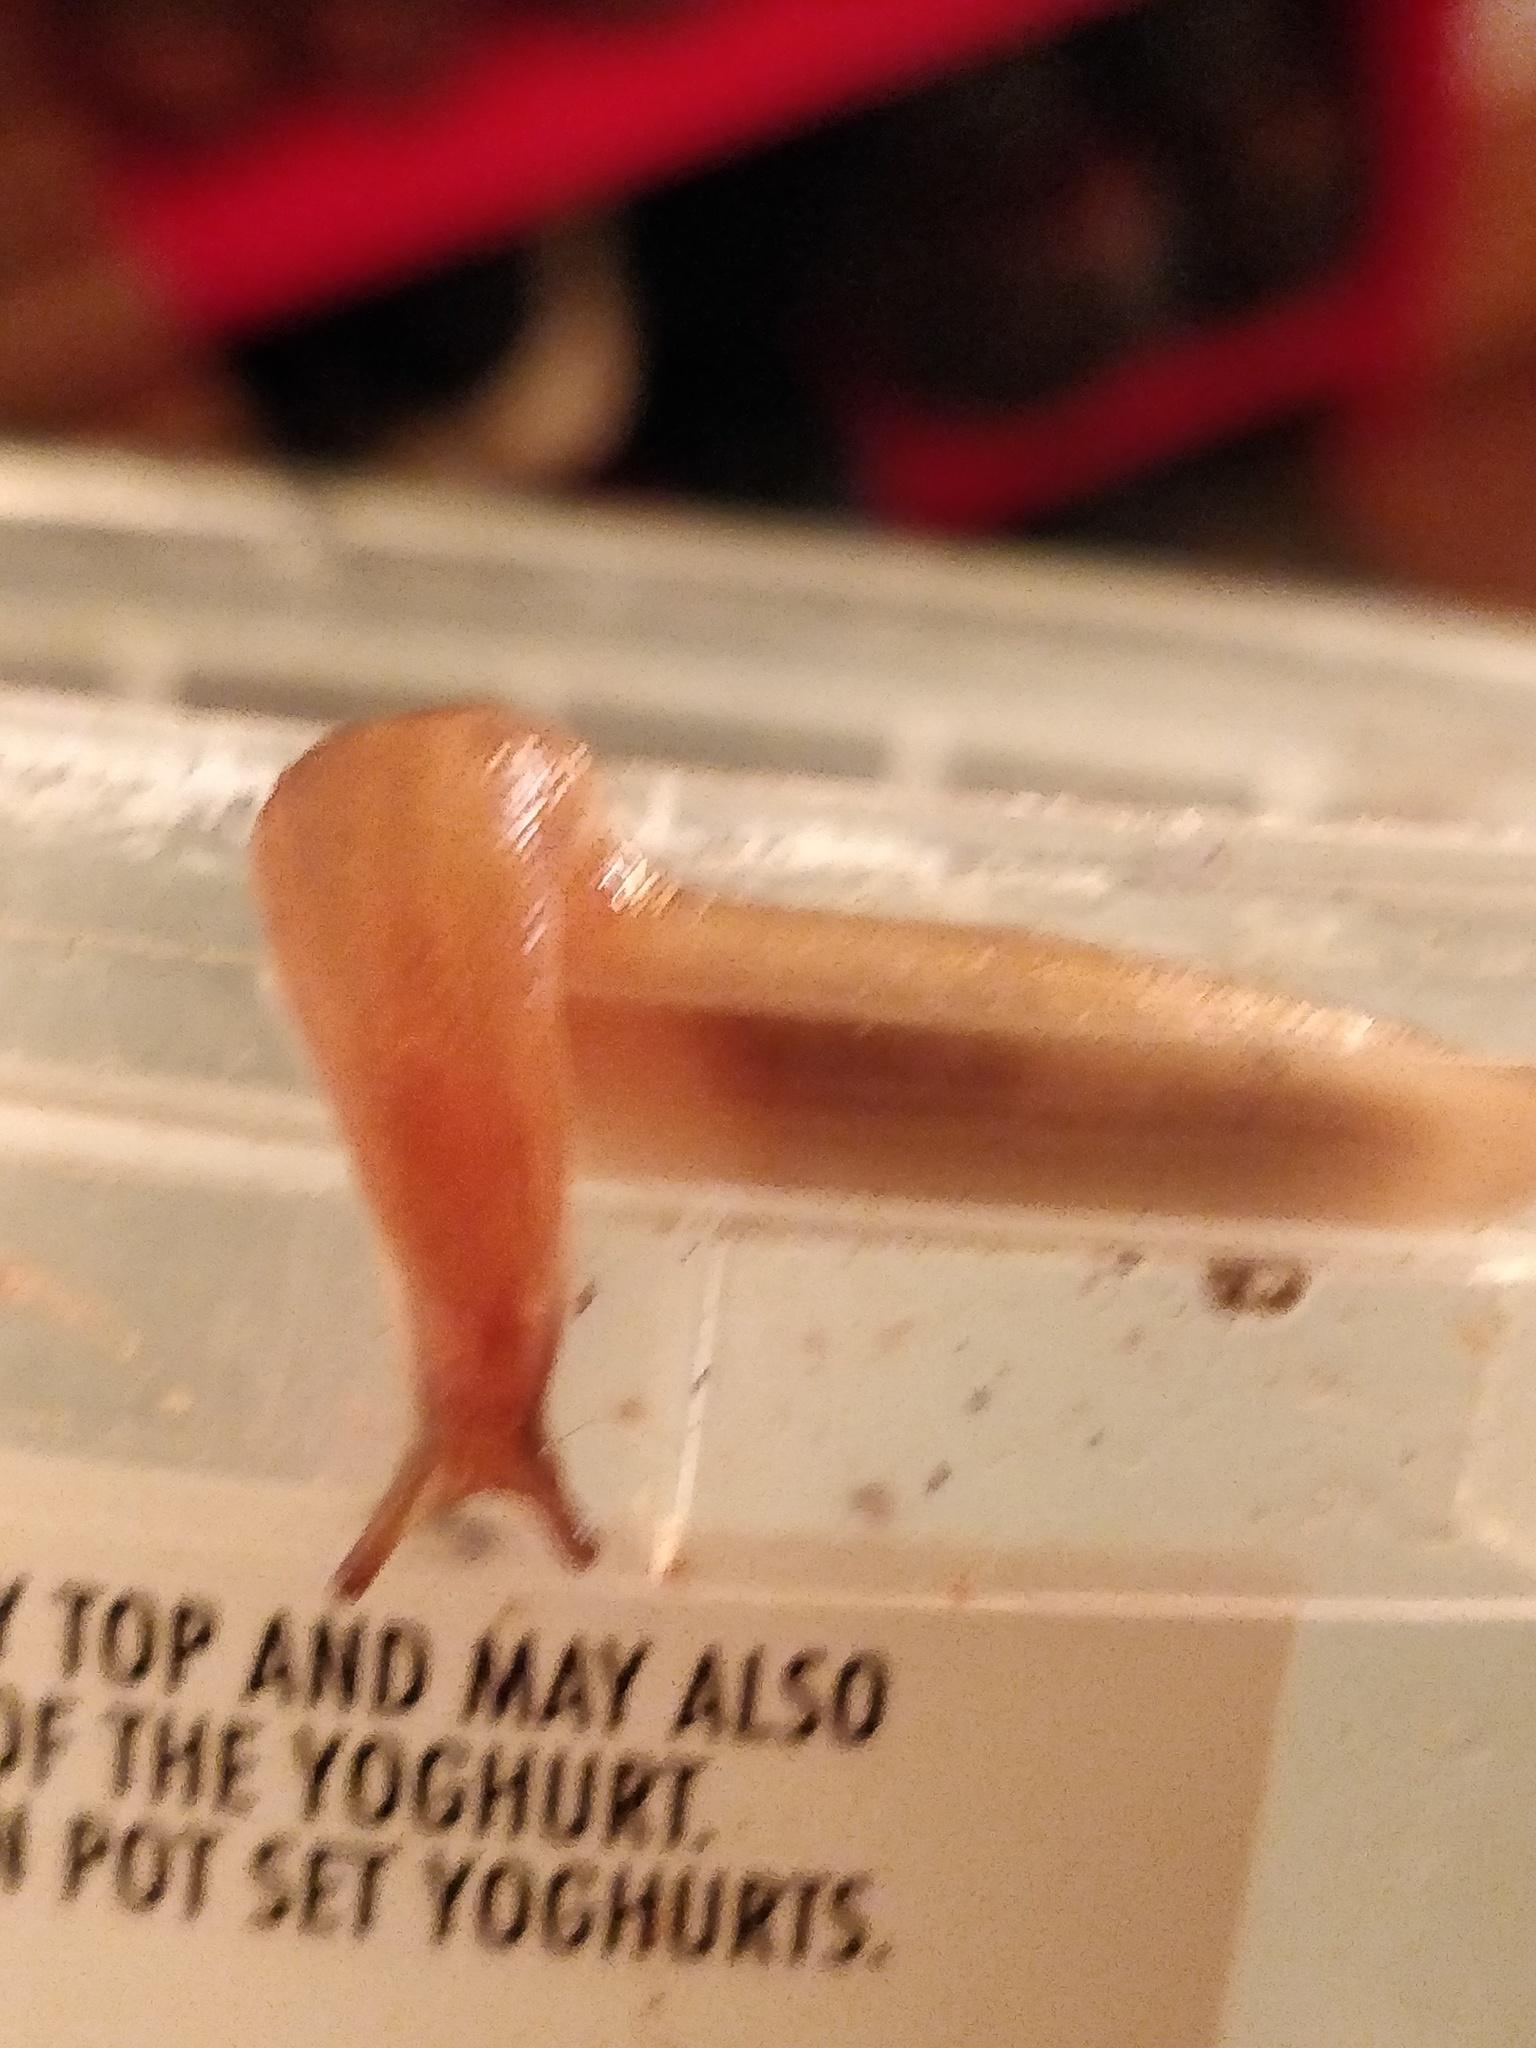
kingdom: Animalia
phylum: Mollusca
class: Gastropoda
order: Stylommatophora
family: Limacidae
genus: Ambigolimax
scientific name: Ambigolimax
